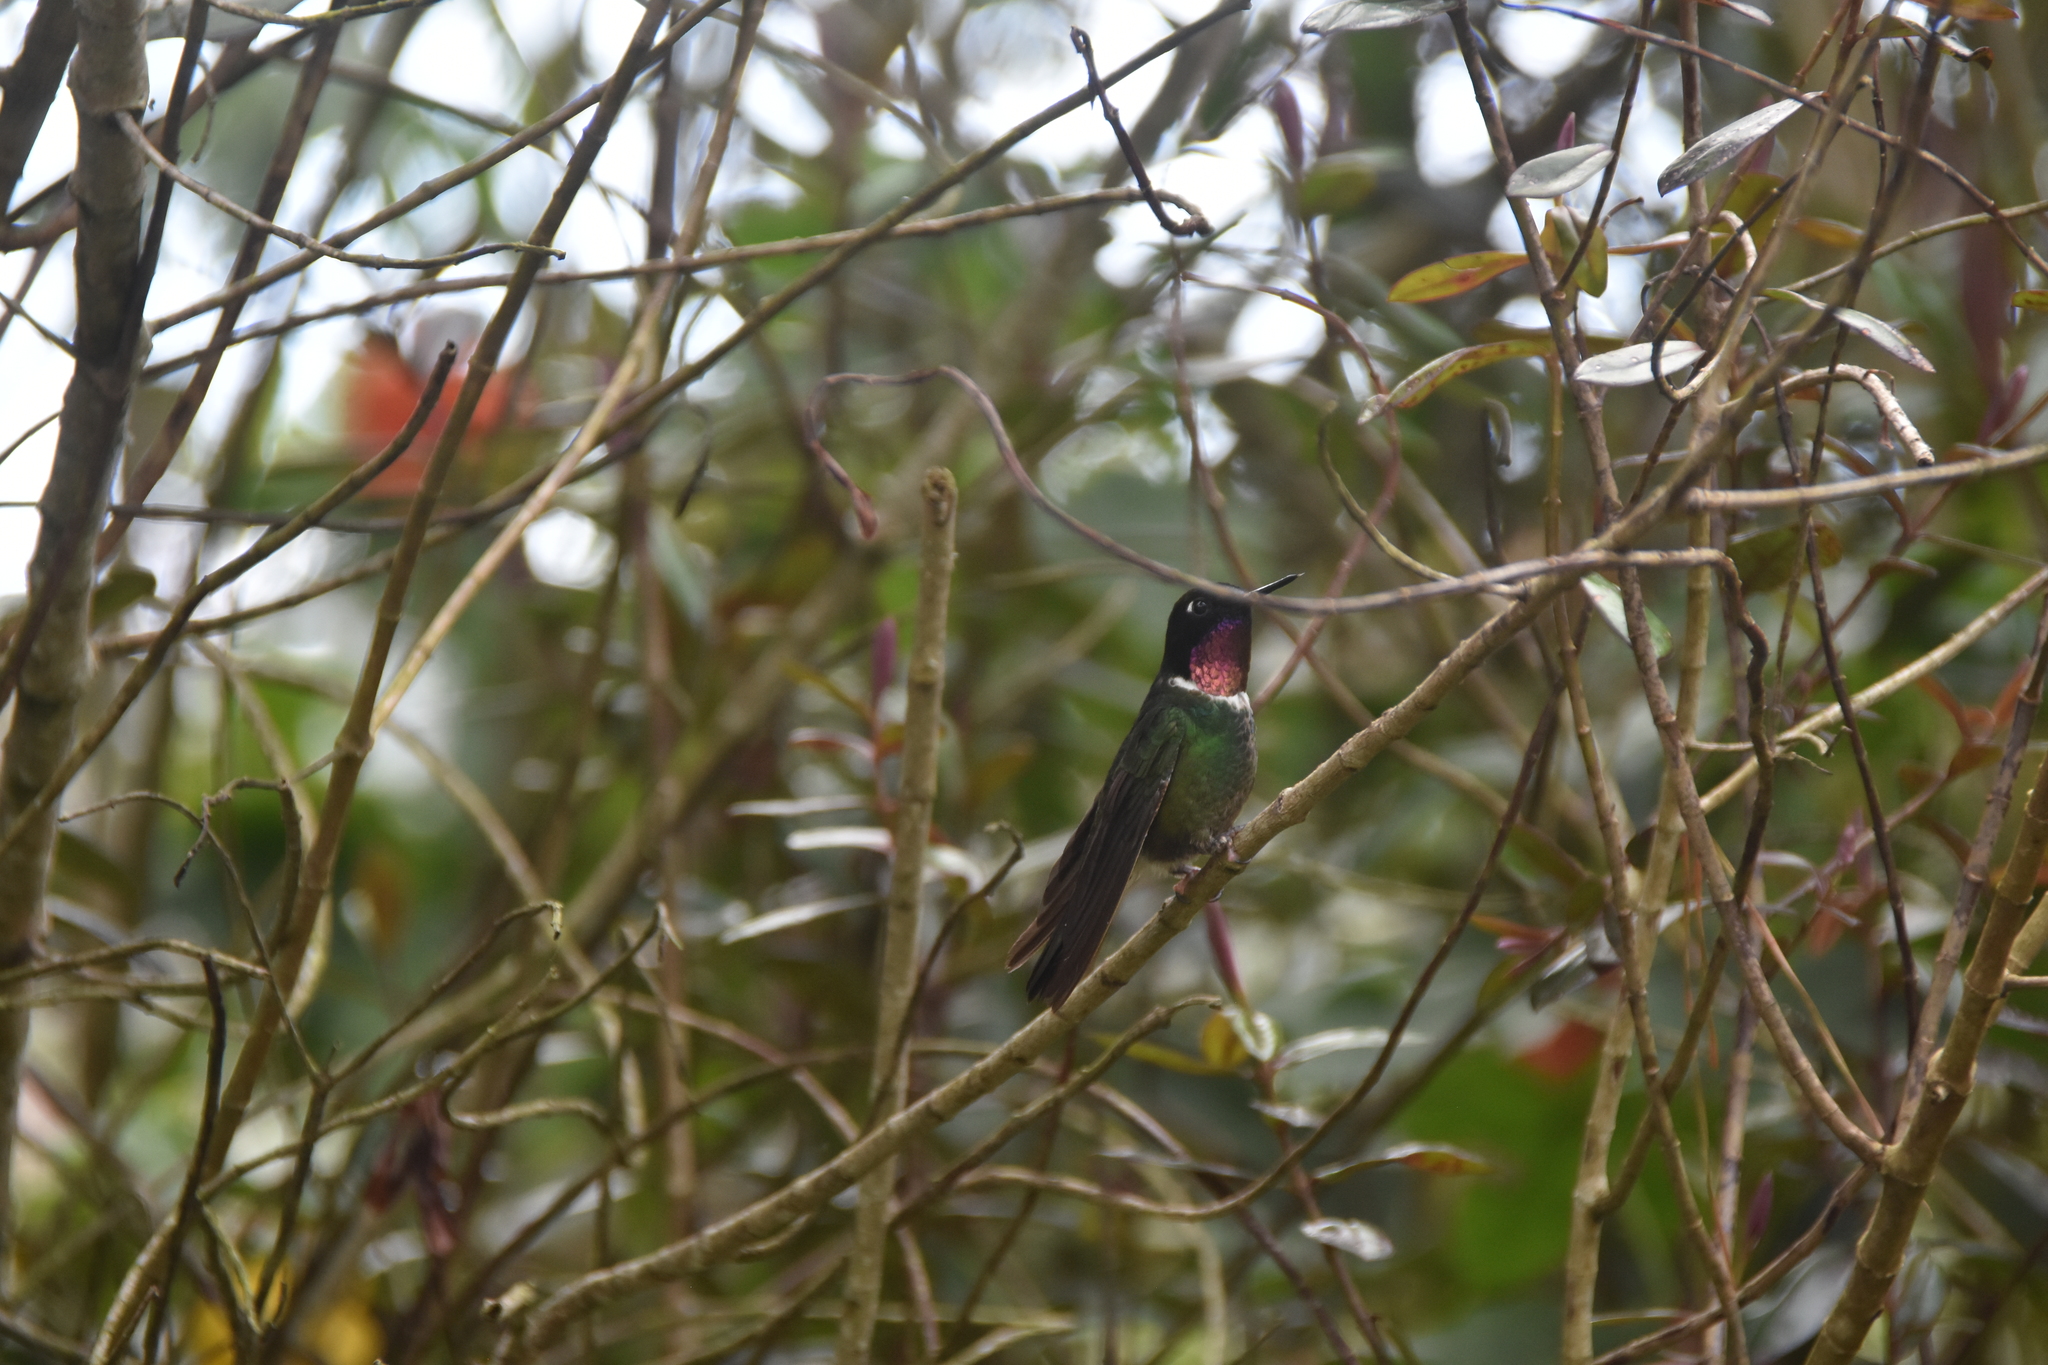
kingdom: Animalia
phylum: Chordata
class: Aves
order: Apodiformes
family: Trochilidae
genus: Heliangelus
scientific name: Heliangelus clarisse
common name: Longuemare's sunangel
